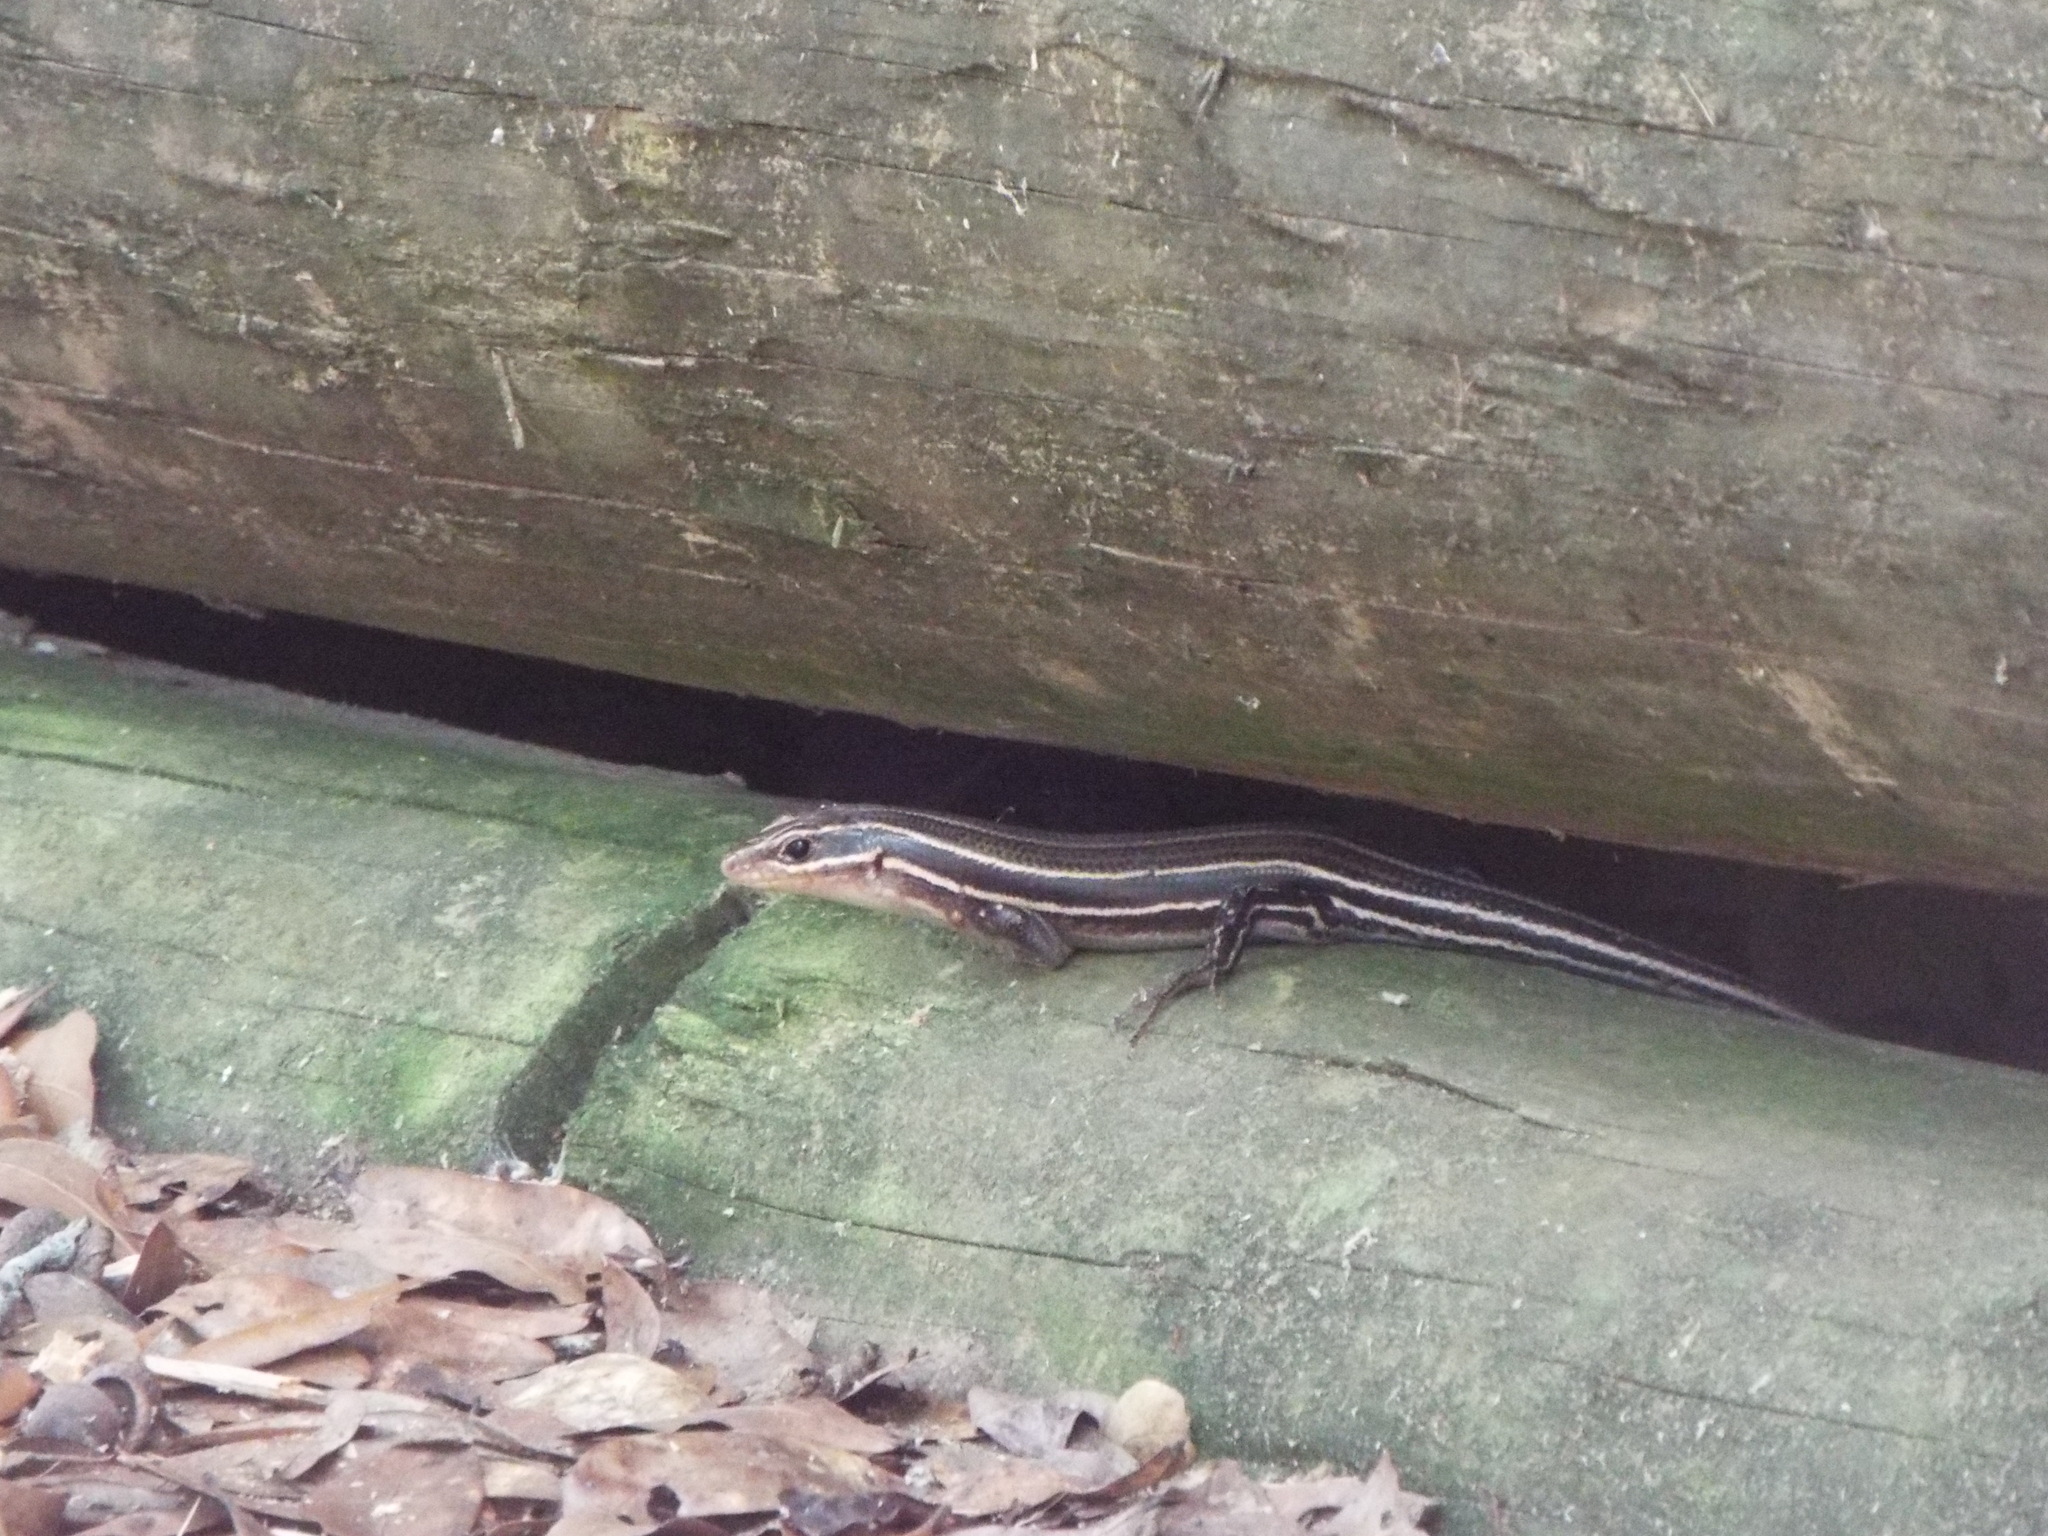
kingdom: Animalia
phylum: Chordata
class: Squamata
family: Scincidae
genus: Plestiodon
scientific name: Plestiodon laticeps
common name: Broadhead skink
